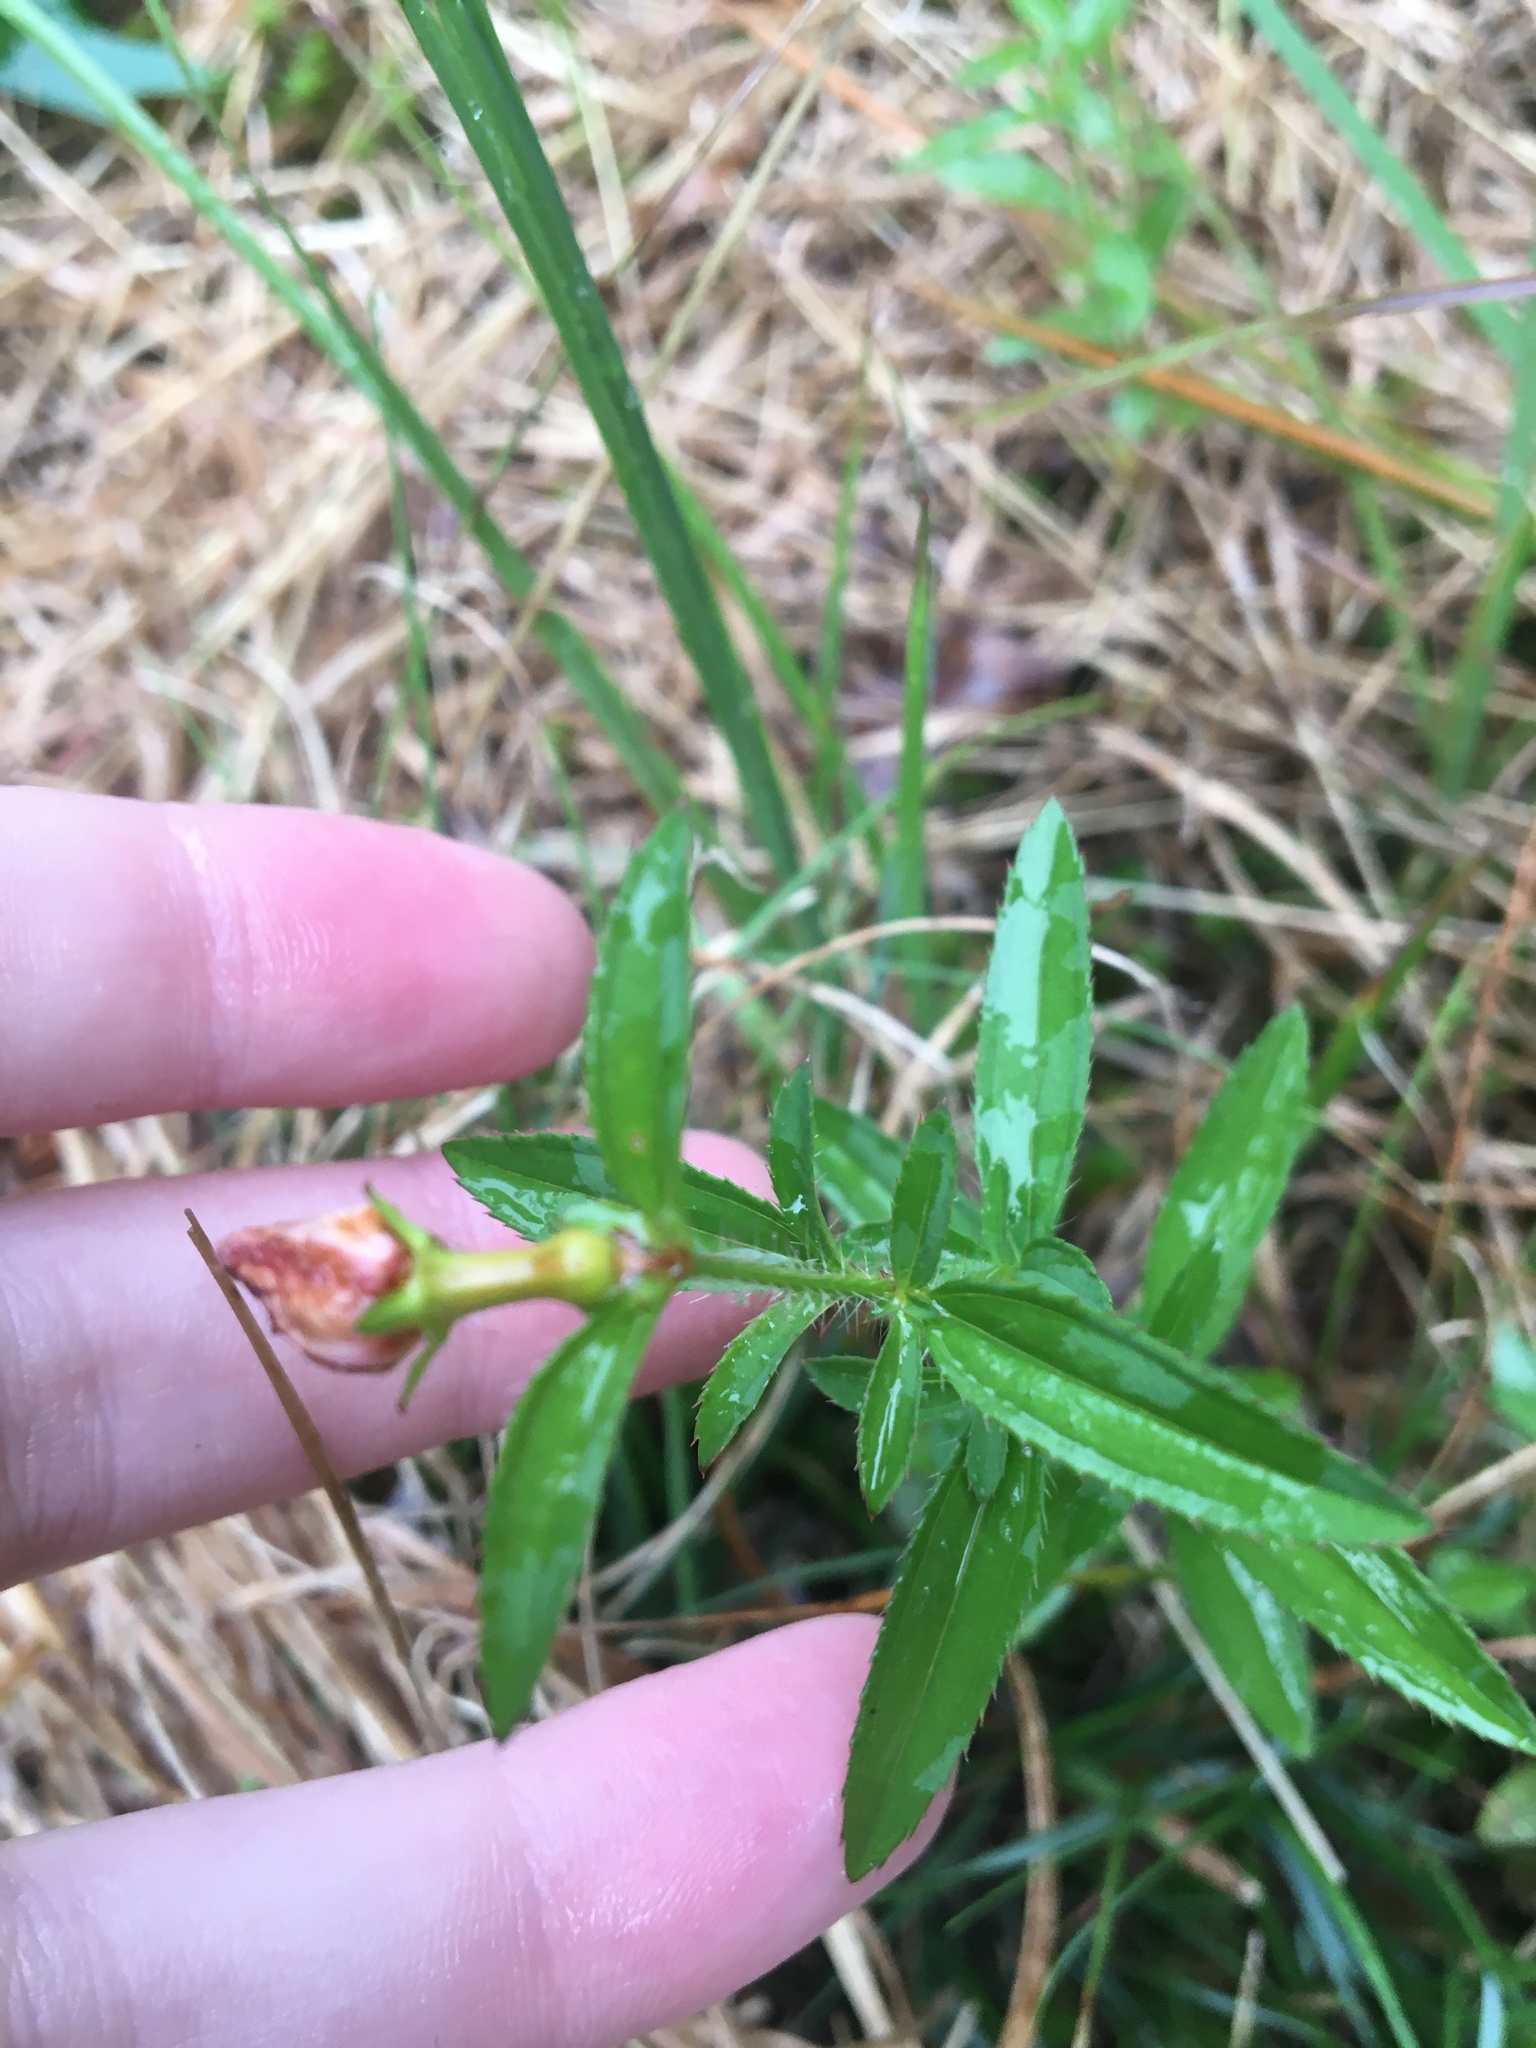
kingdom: Plantae
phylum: Tracheophyta
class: Magnoliopsida
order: Myrtales
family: Melastomataceae
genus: Rhexia
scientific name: Rhexia mariana
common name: Dull meadow-pitcher
